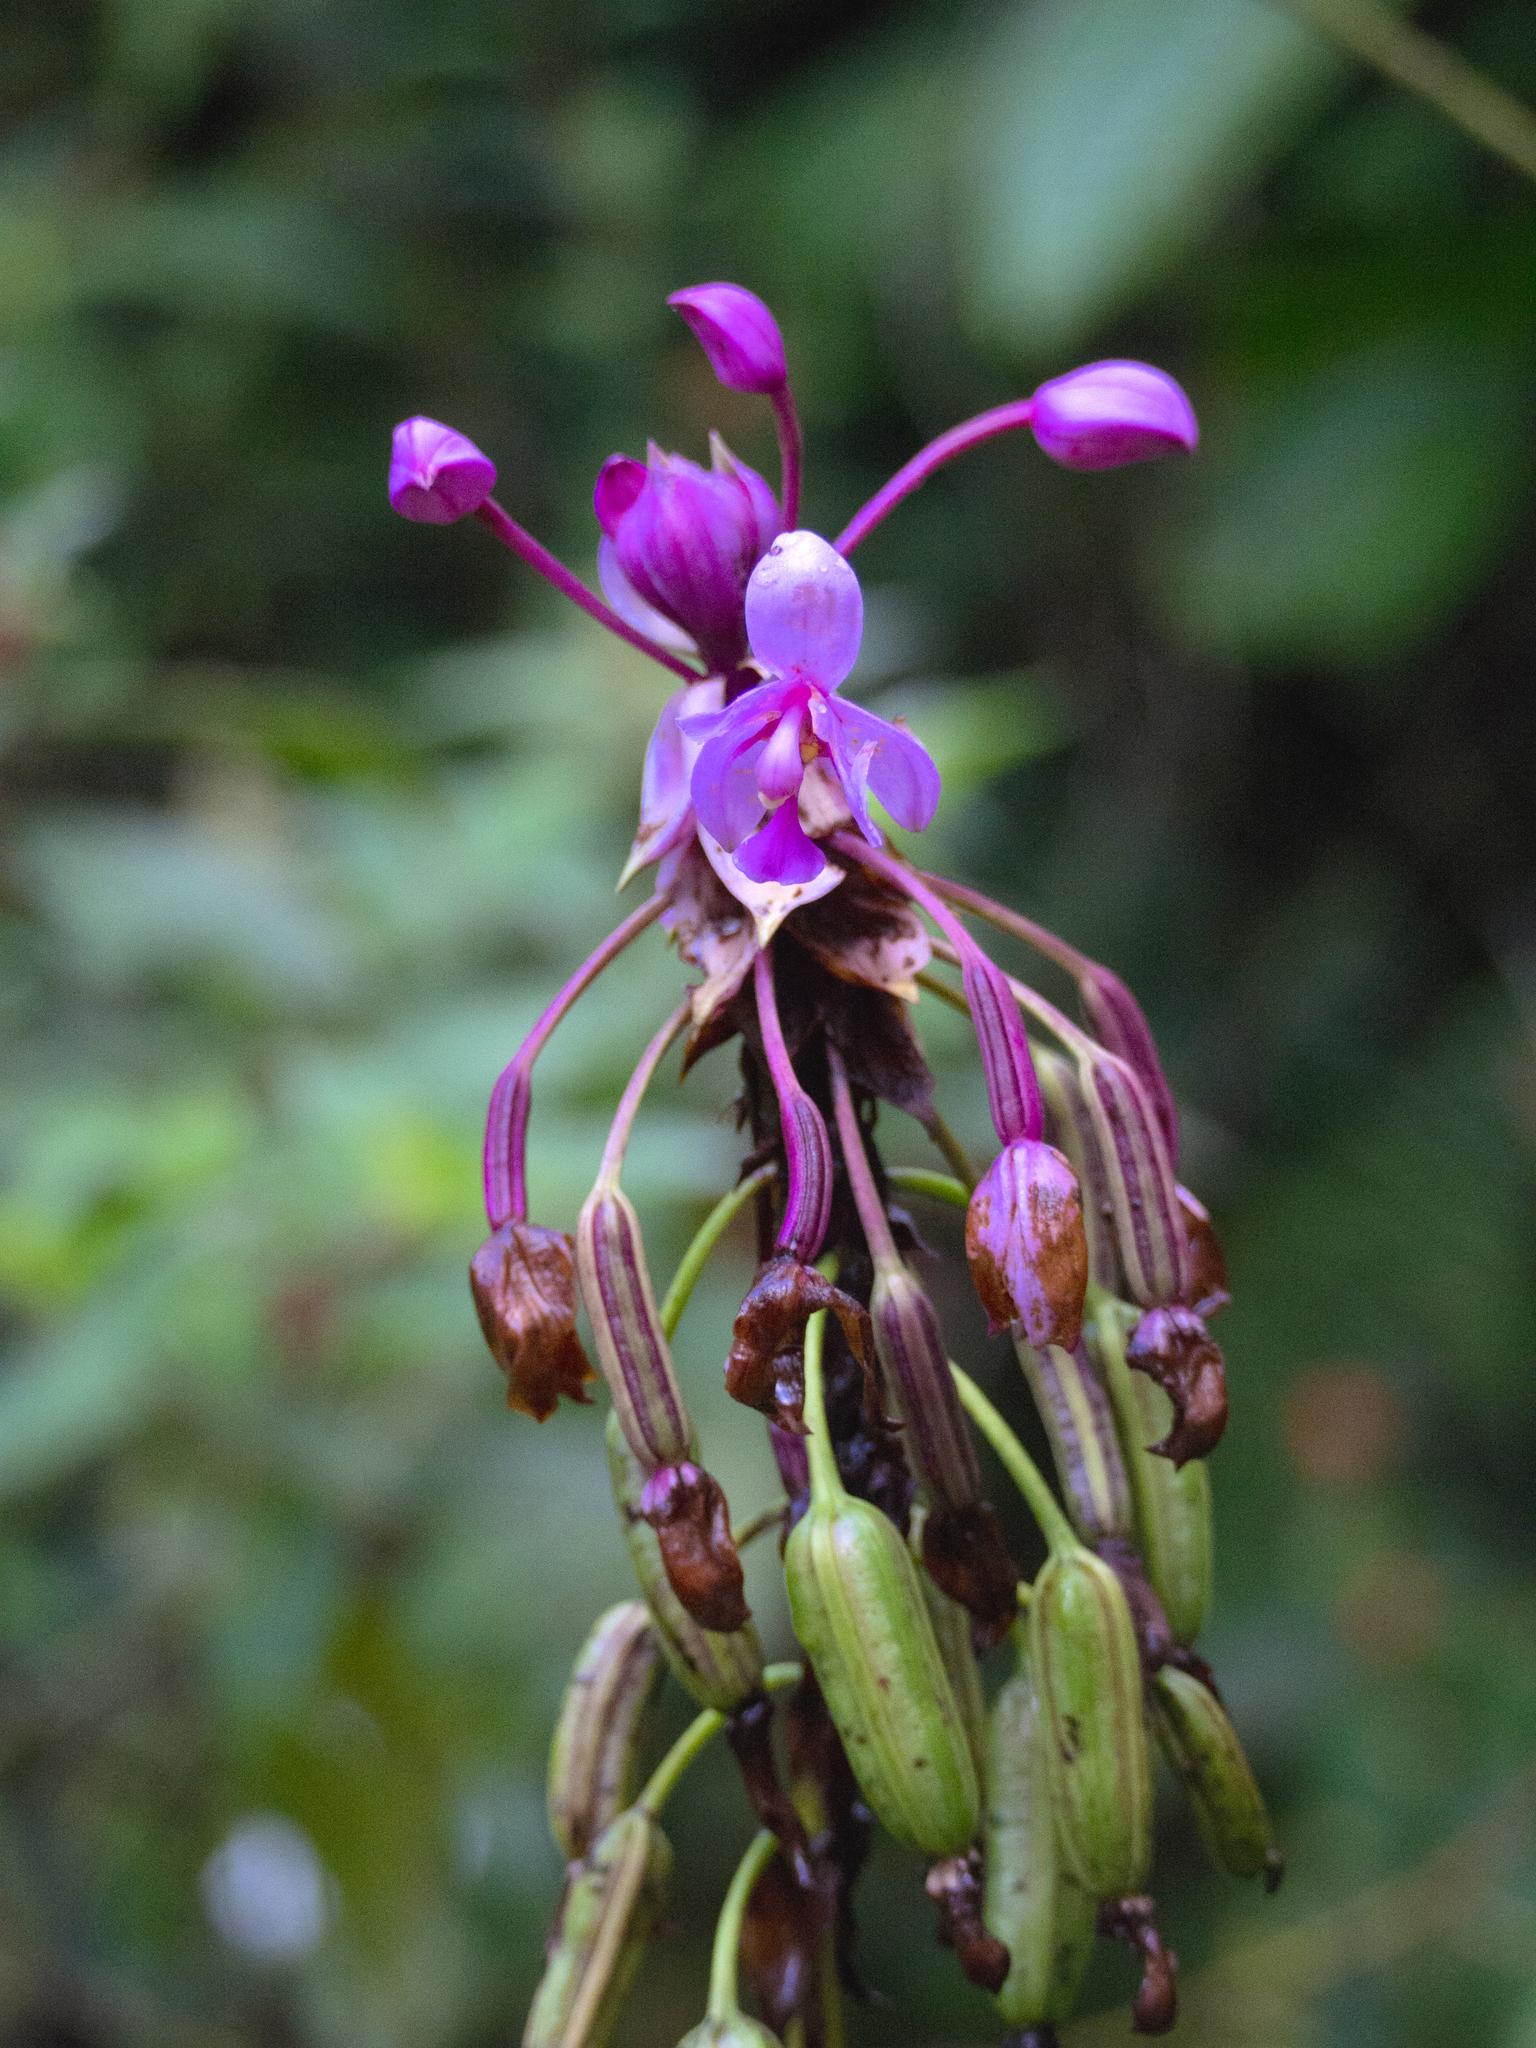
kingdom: Plantae
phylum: Tracheophyta
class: Liliopsida
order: Asparagales
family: Orchidaceae
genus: Spathoglottis
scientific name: Spathoglottis plicata
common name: Philippine ground orchid
